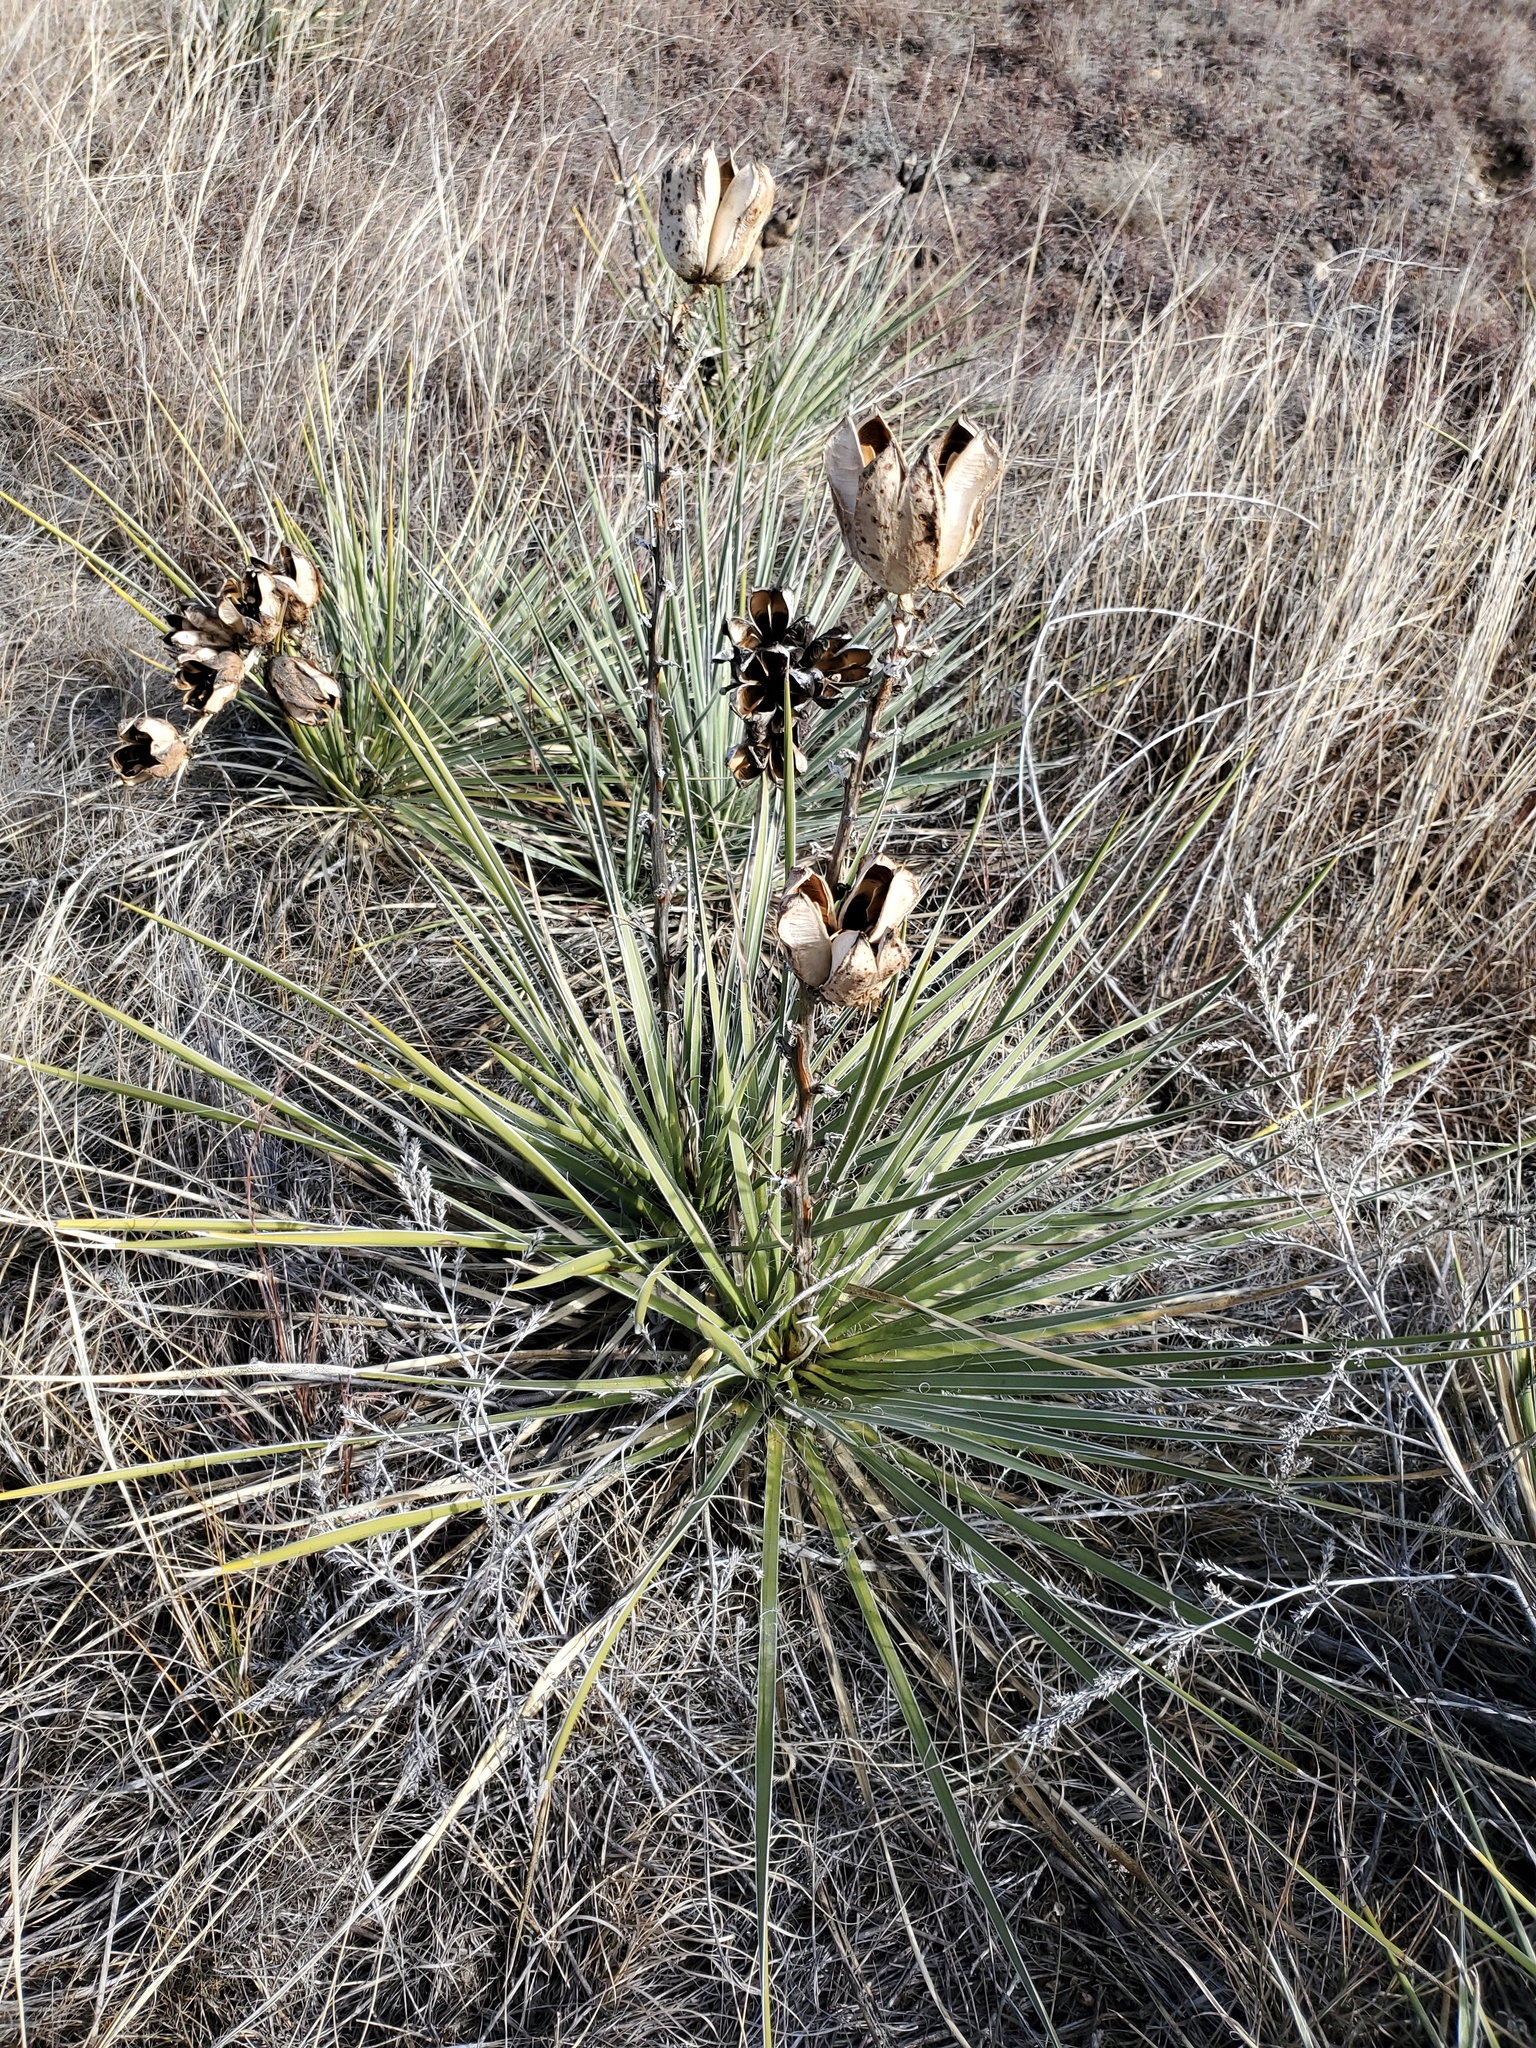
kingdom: Plantae
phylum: Tracheophyta
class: Liliopsida
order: Asparagales
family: Asparagaceae
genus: Yucca
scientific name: Yucca glauca
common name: Great plains yucca
